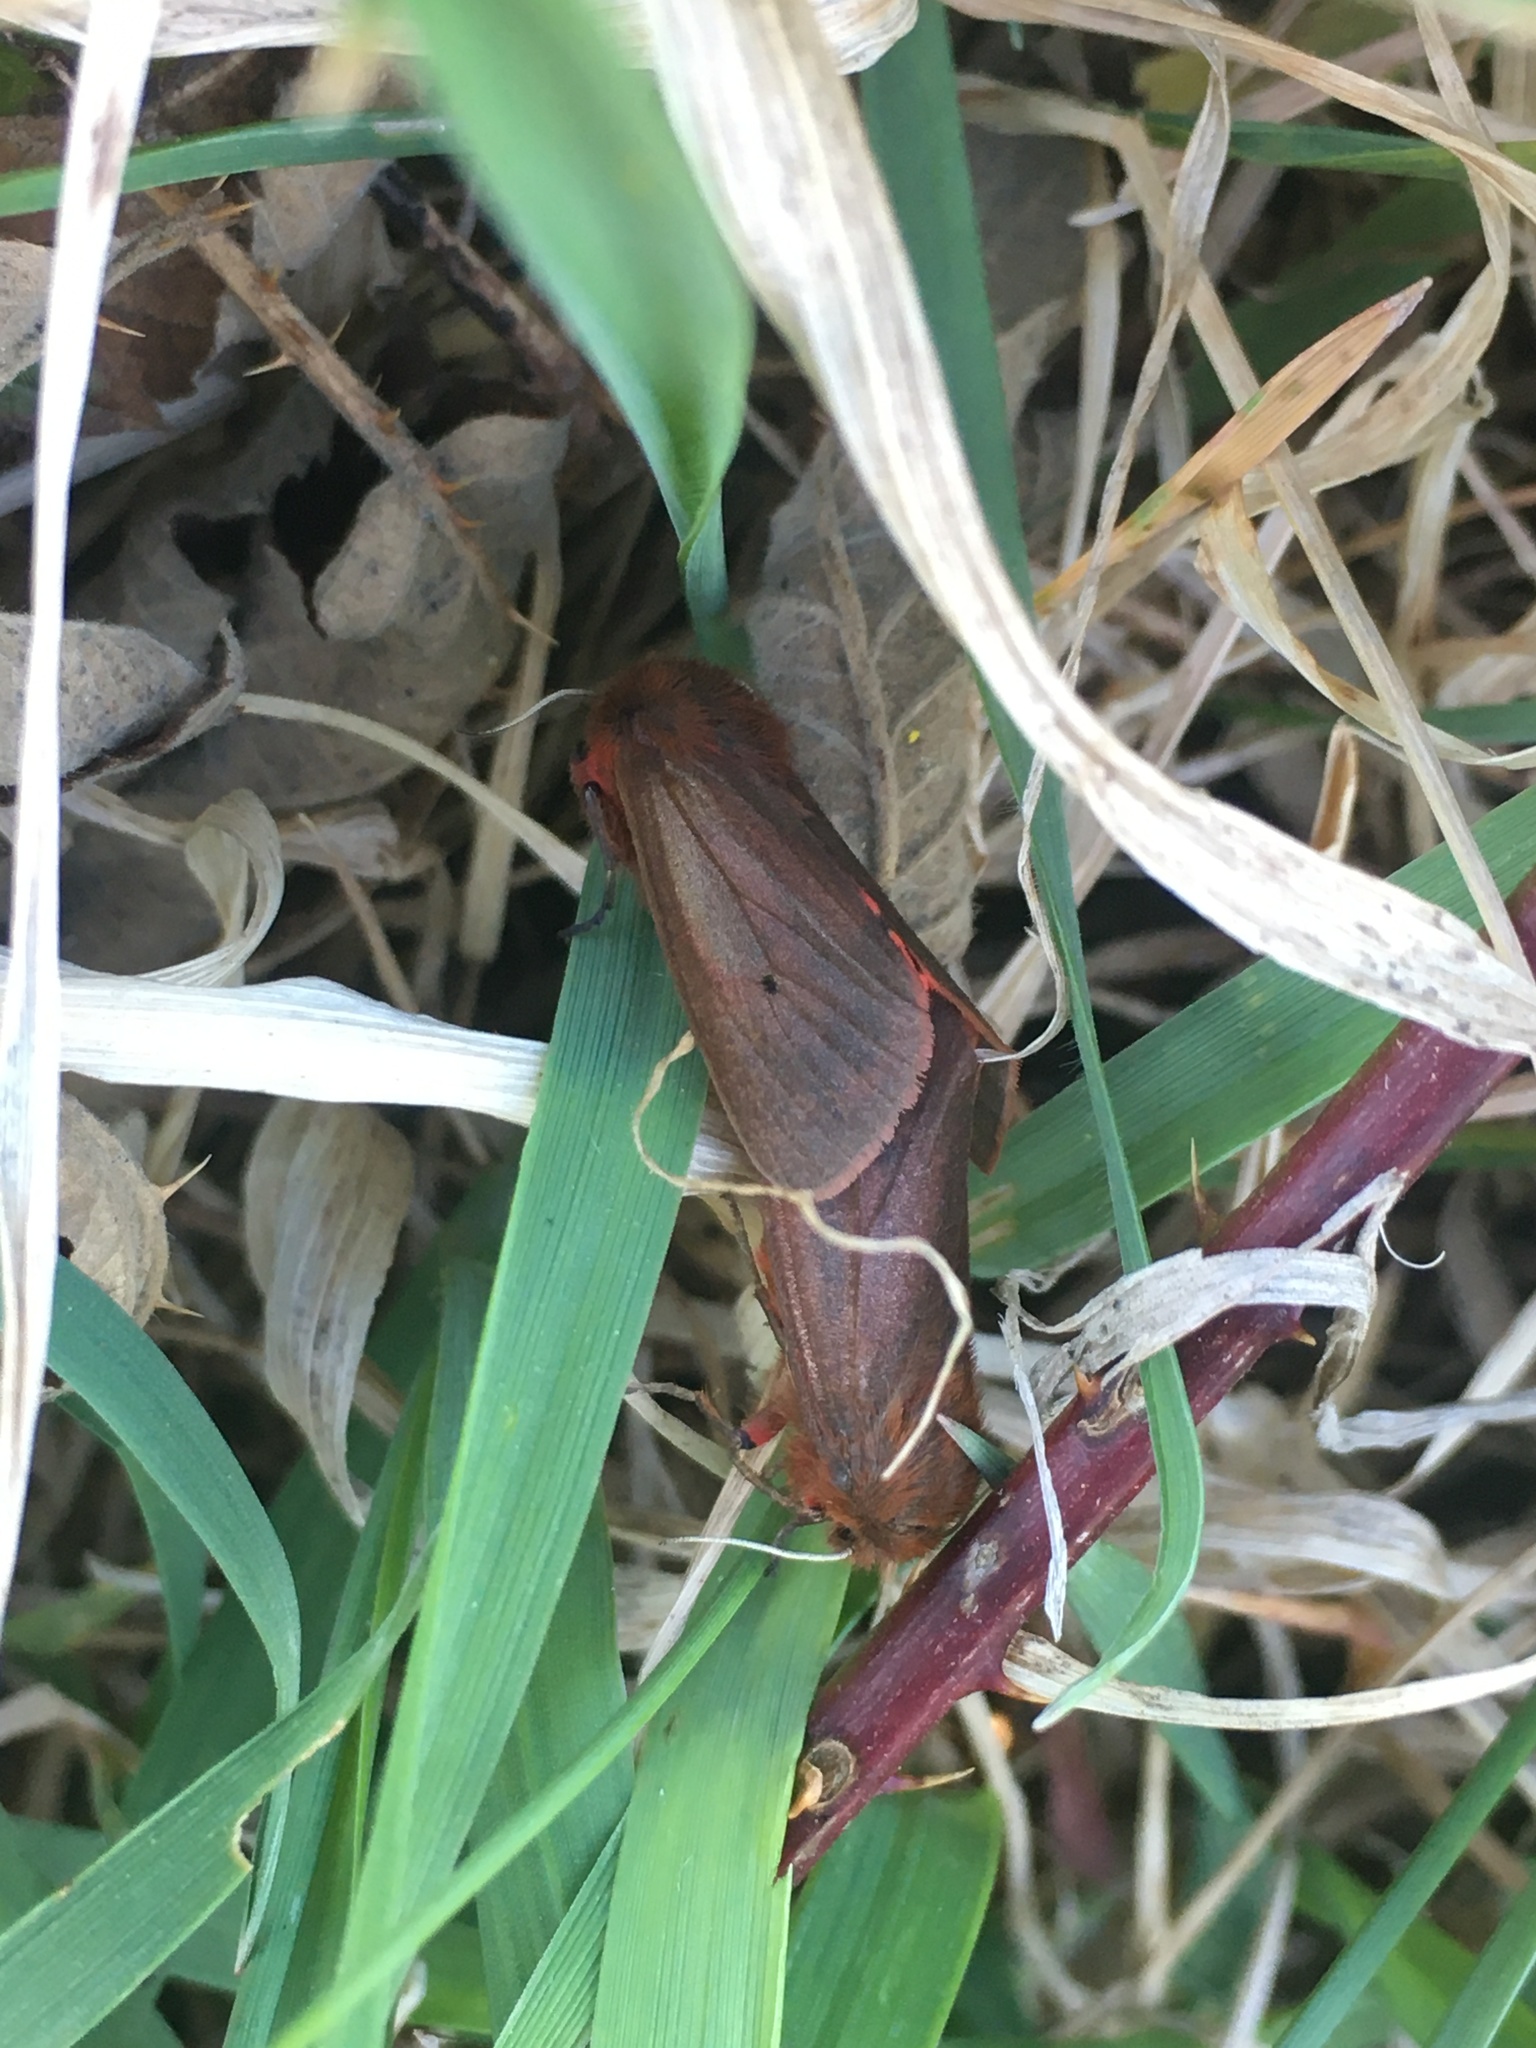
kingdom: Animalia
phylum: Arthropoda
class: Insecta
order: Lepidoptera
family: Erebidae
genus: Phragmatobia
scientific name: Phragmatobia fuliginosa
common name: Ruby tiger
